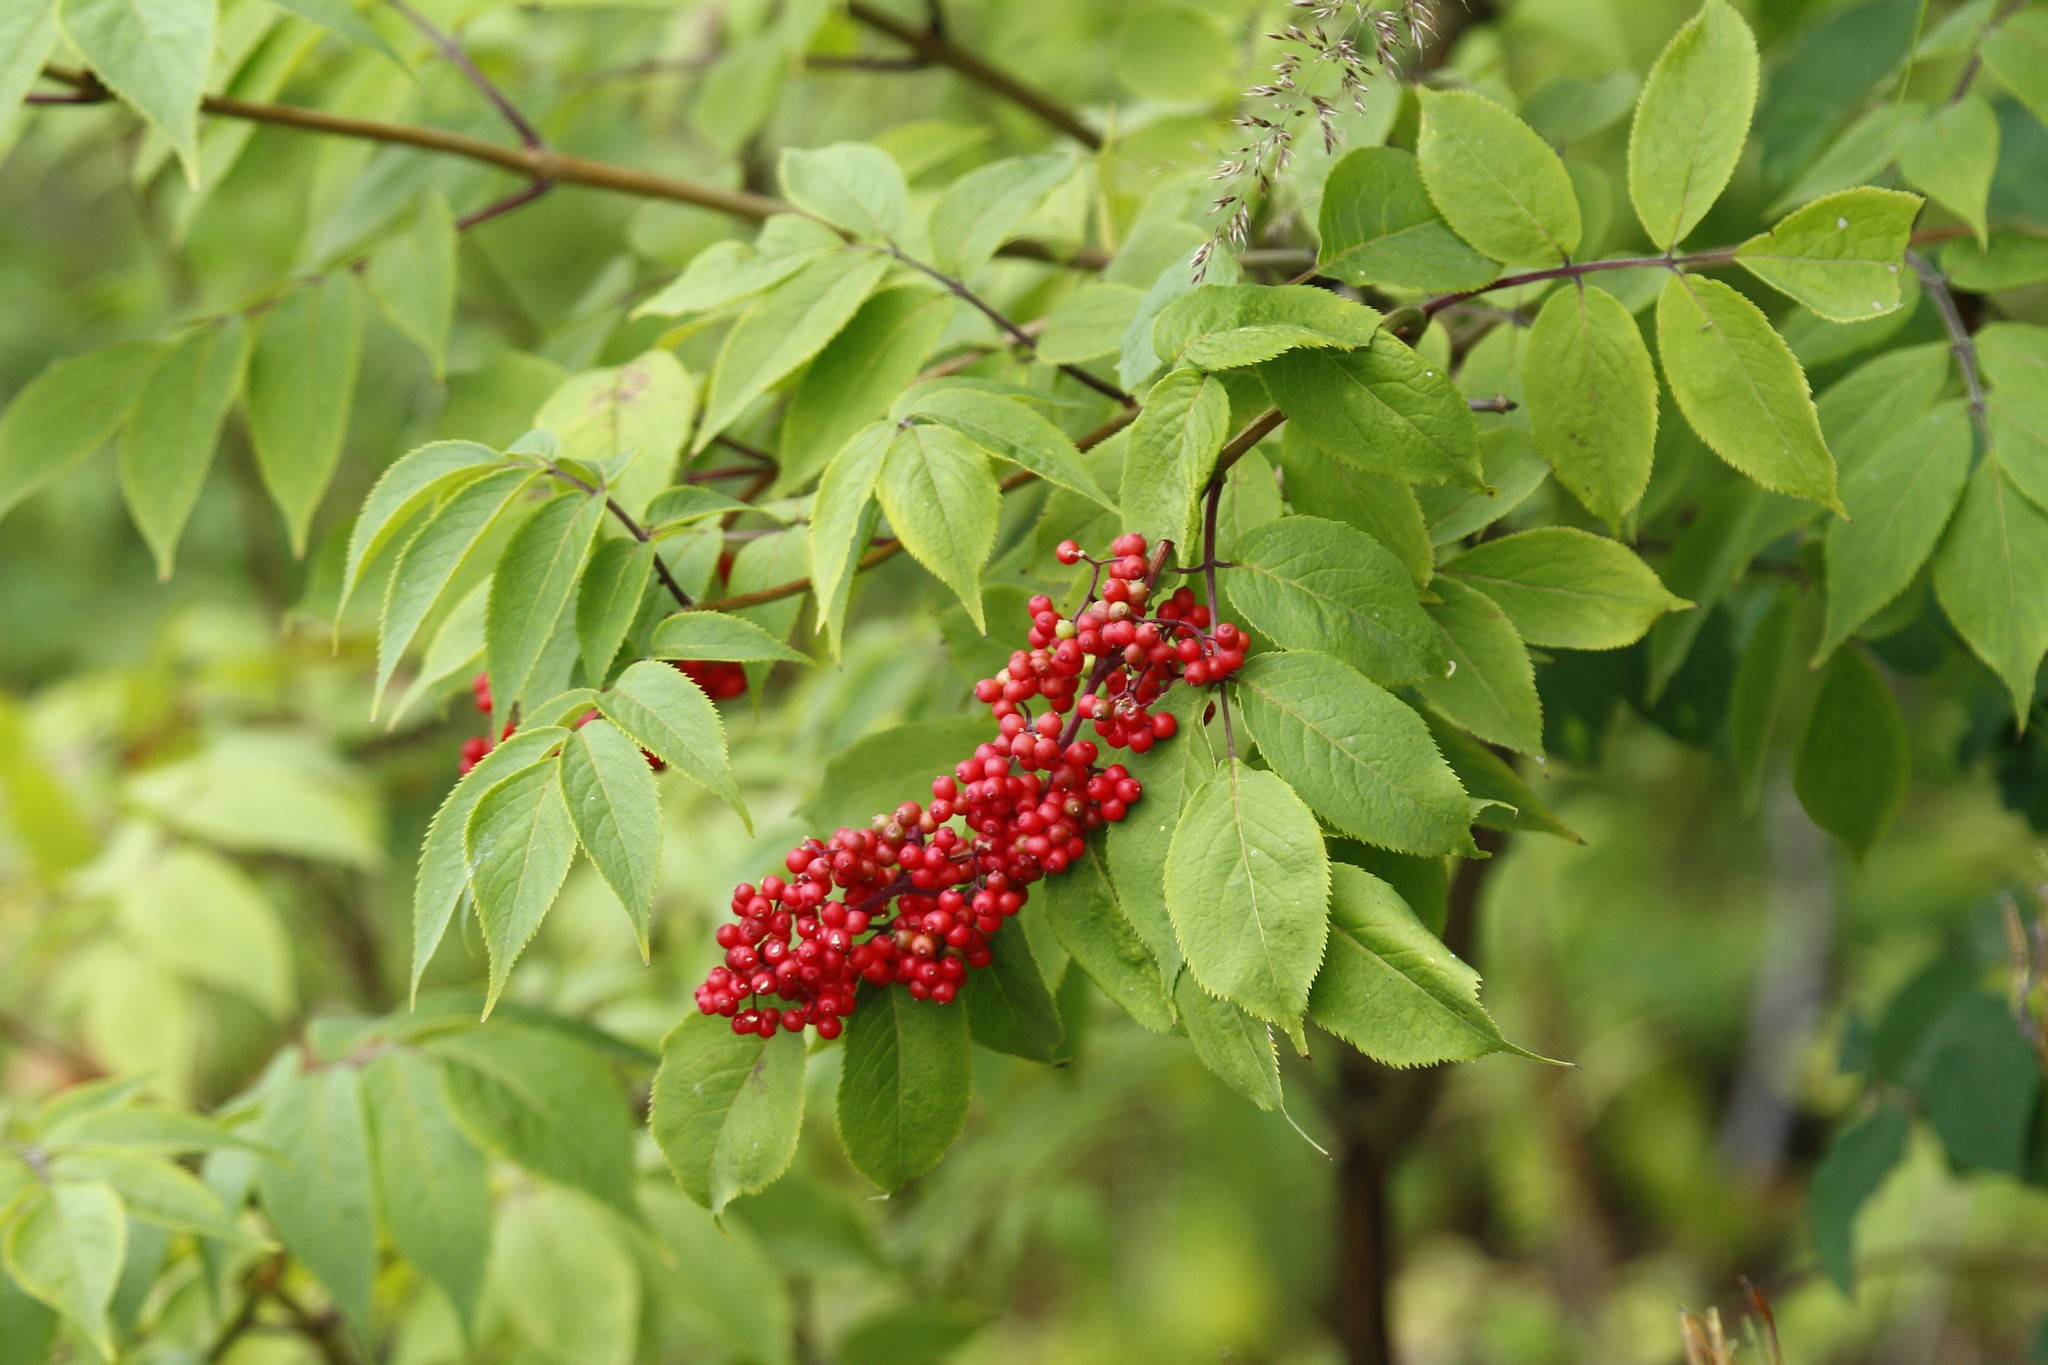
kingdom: Plantae
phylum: Tracheophyta
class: Magnoliopsida
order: Dipsacales
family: Viburnaceae
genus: Sambucus
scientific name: Sambucus racemosa
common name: Red-berried elder
